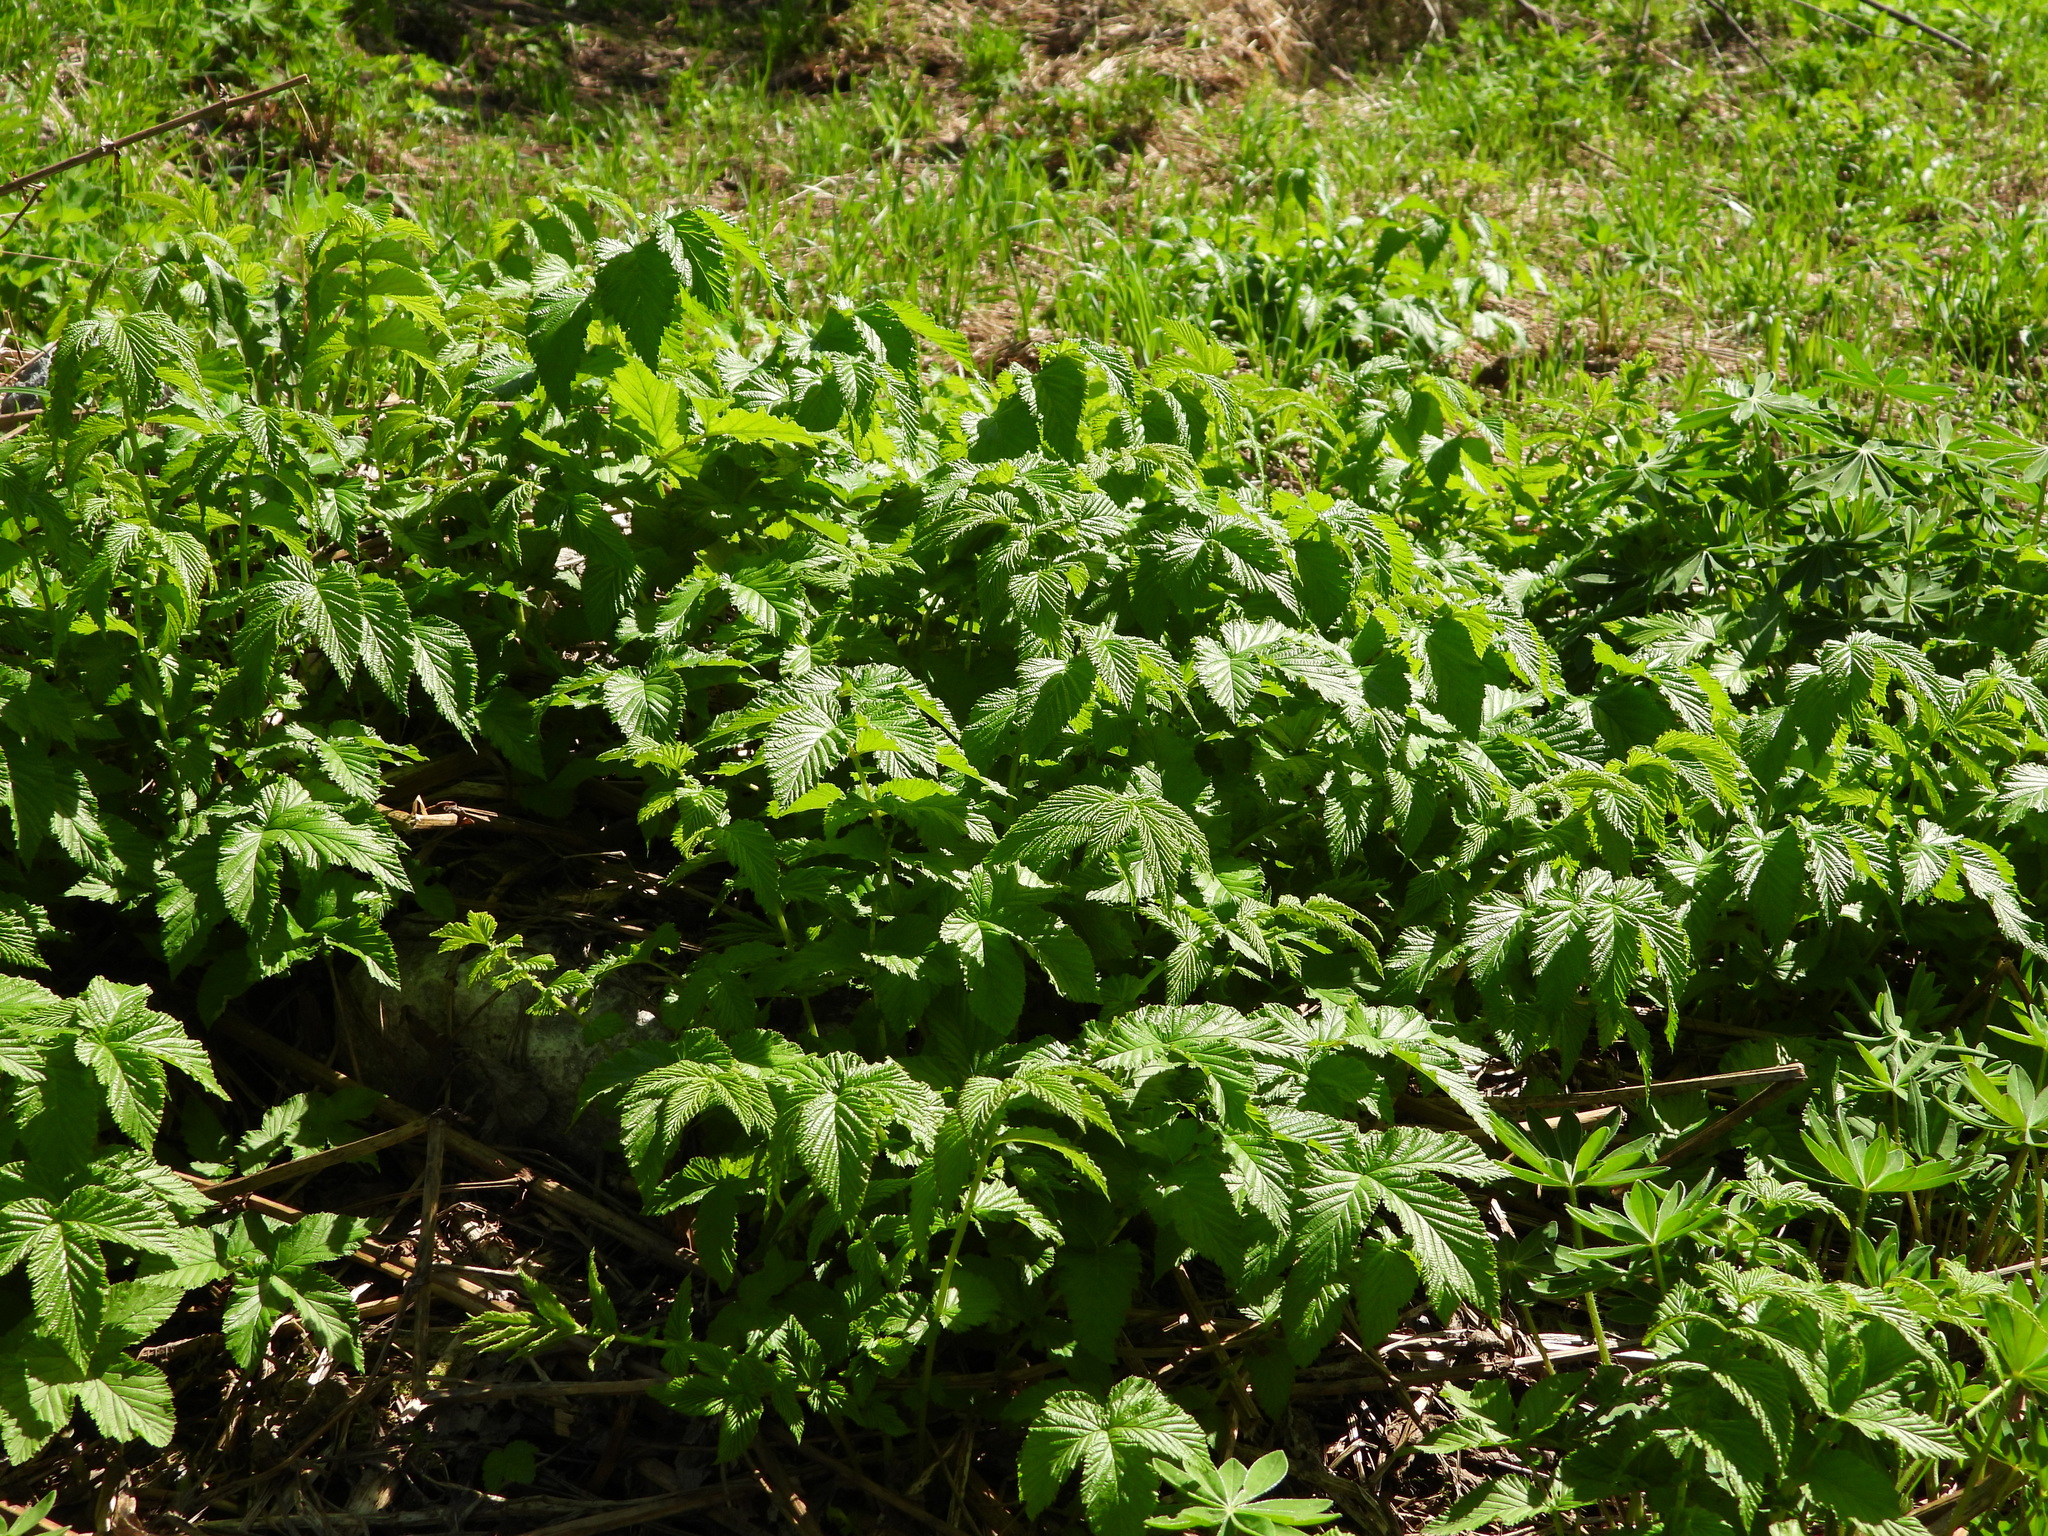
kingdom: Plantae
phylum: Tracheophyta
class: Magnoliopsida
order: Rosales
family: Rosaceae
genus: Filipendula
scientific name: Filipendula ulmaria
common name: Meadowsweet
